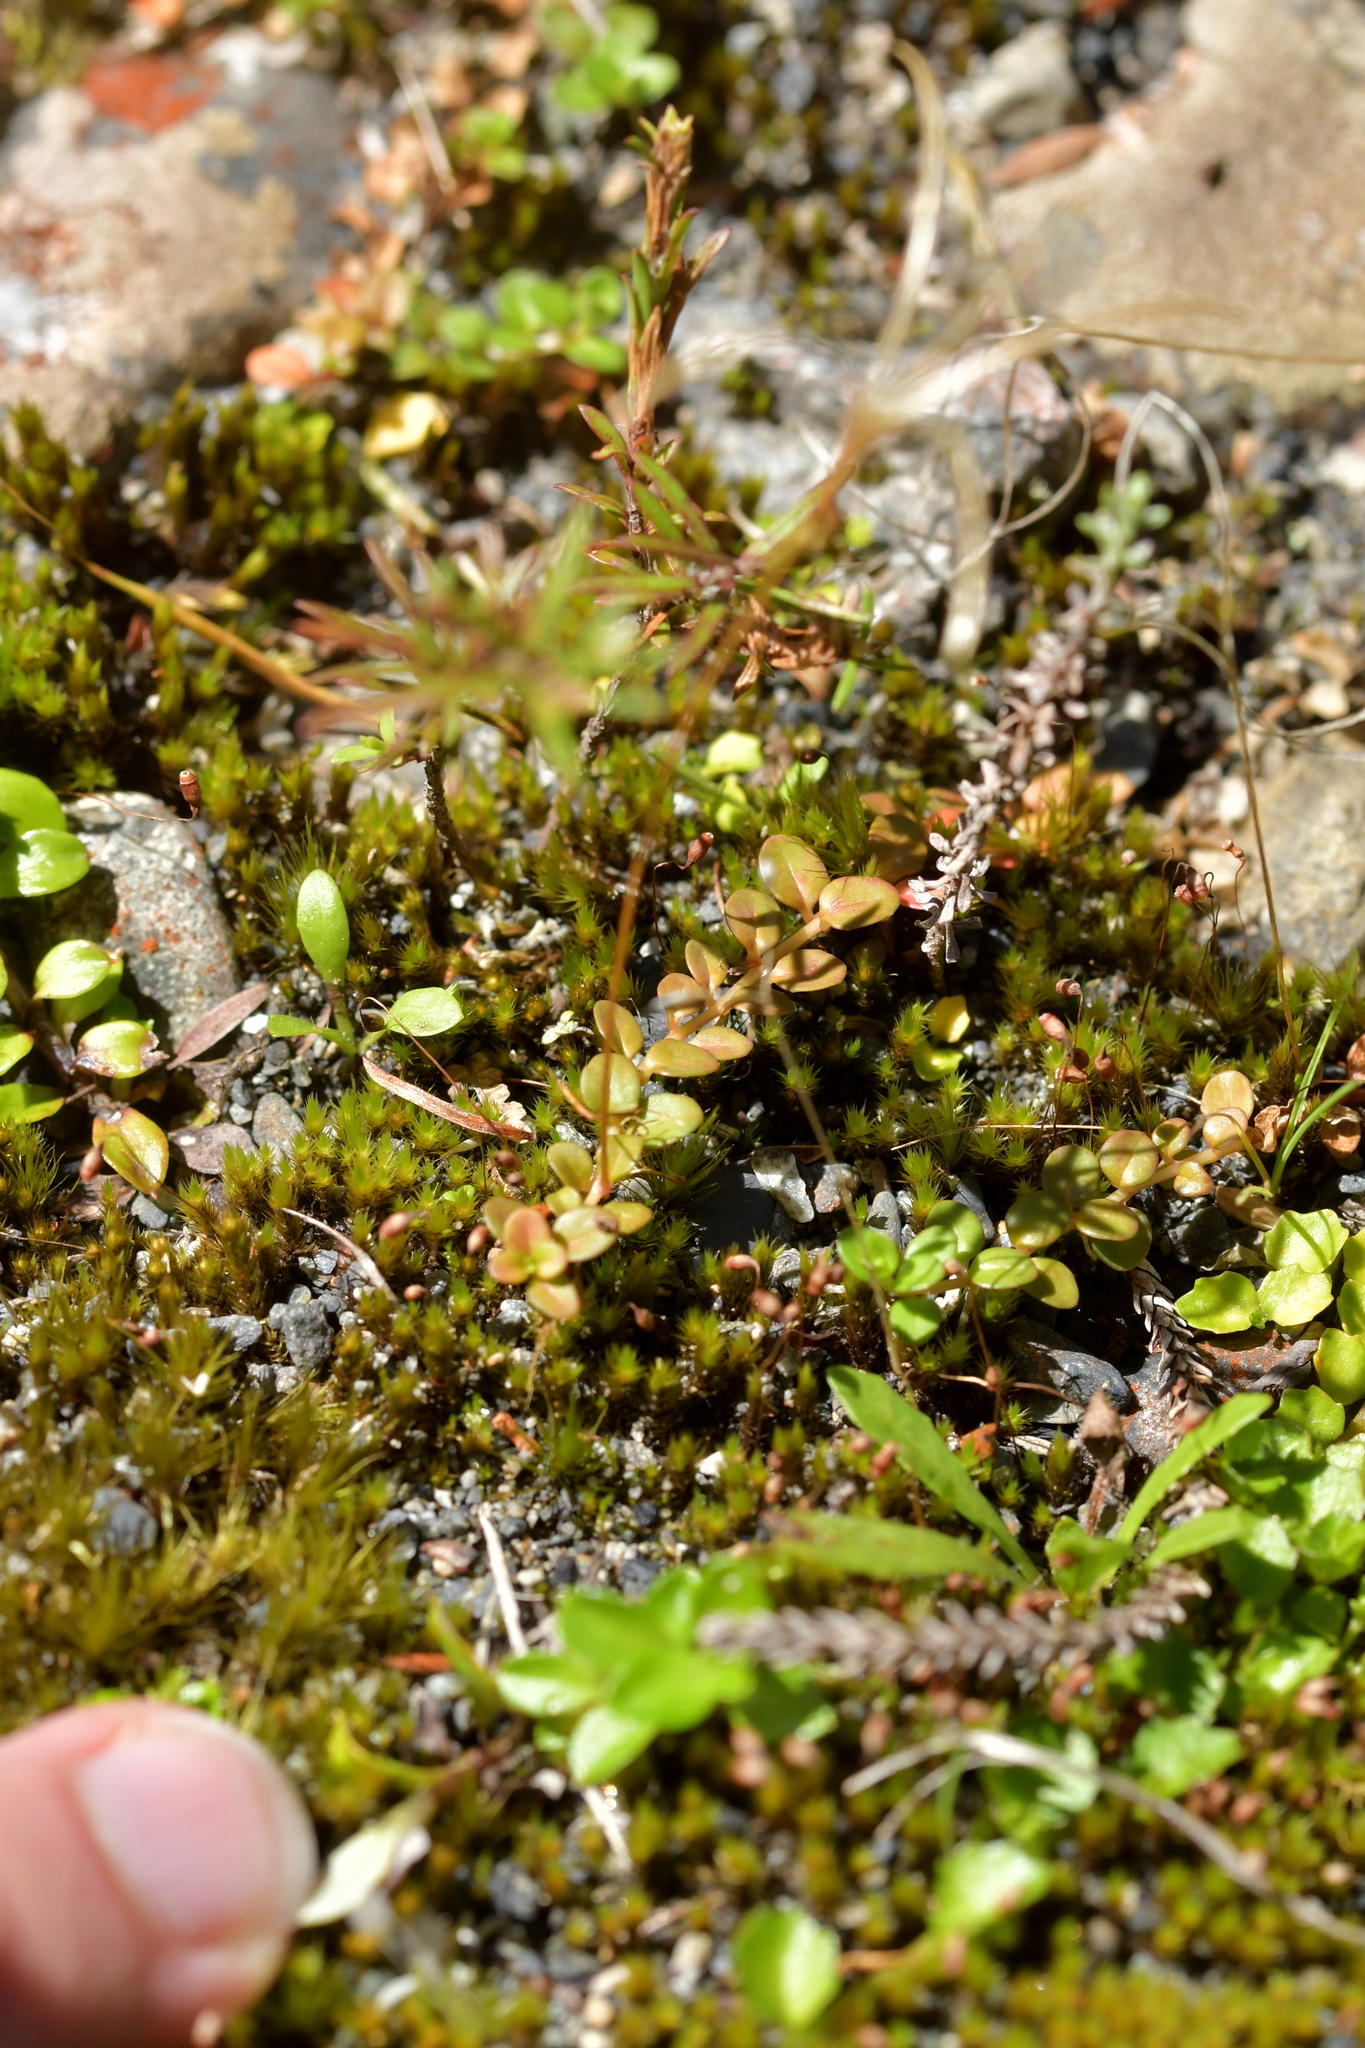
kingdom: Plantae
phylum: Tracheophyta
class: Magnoliopsida
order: Myrtales
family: Onagraceae
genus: Epilobium
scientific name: Epilobium brunnescens
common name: New zealand willowherb
